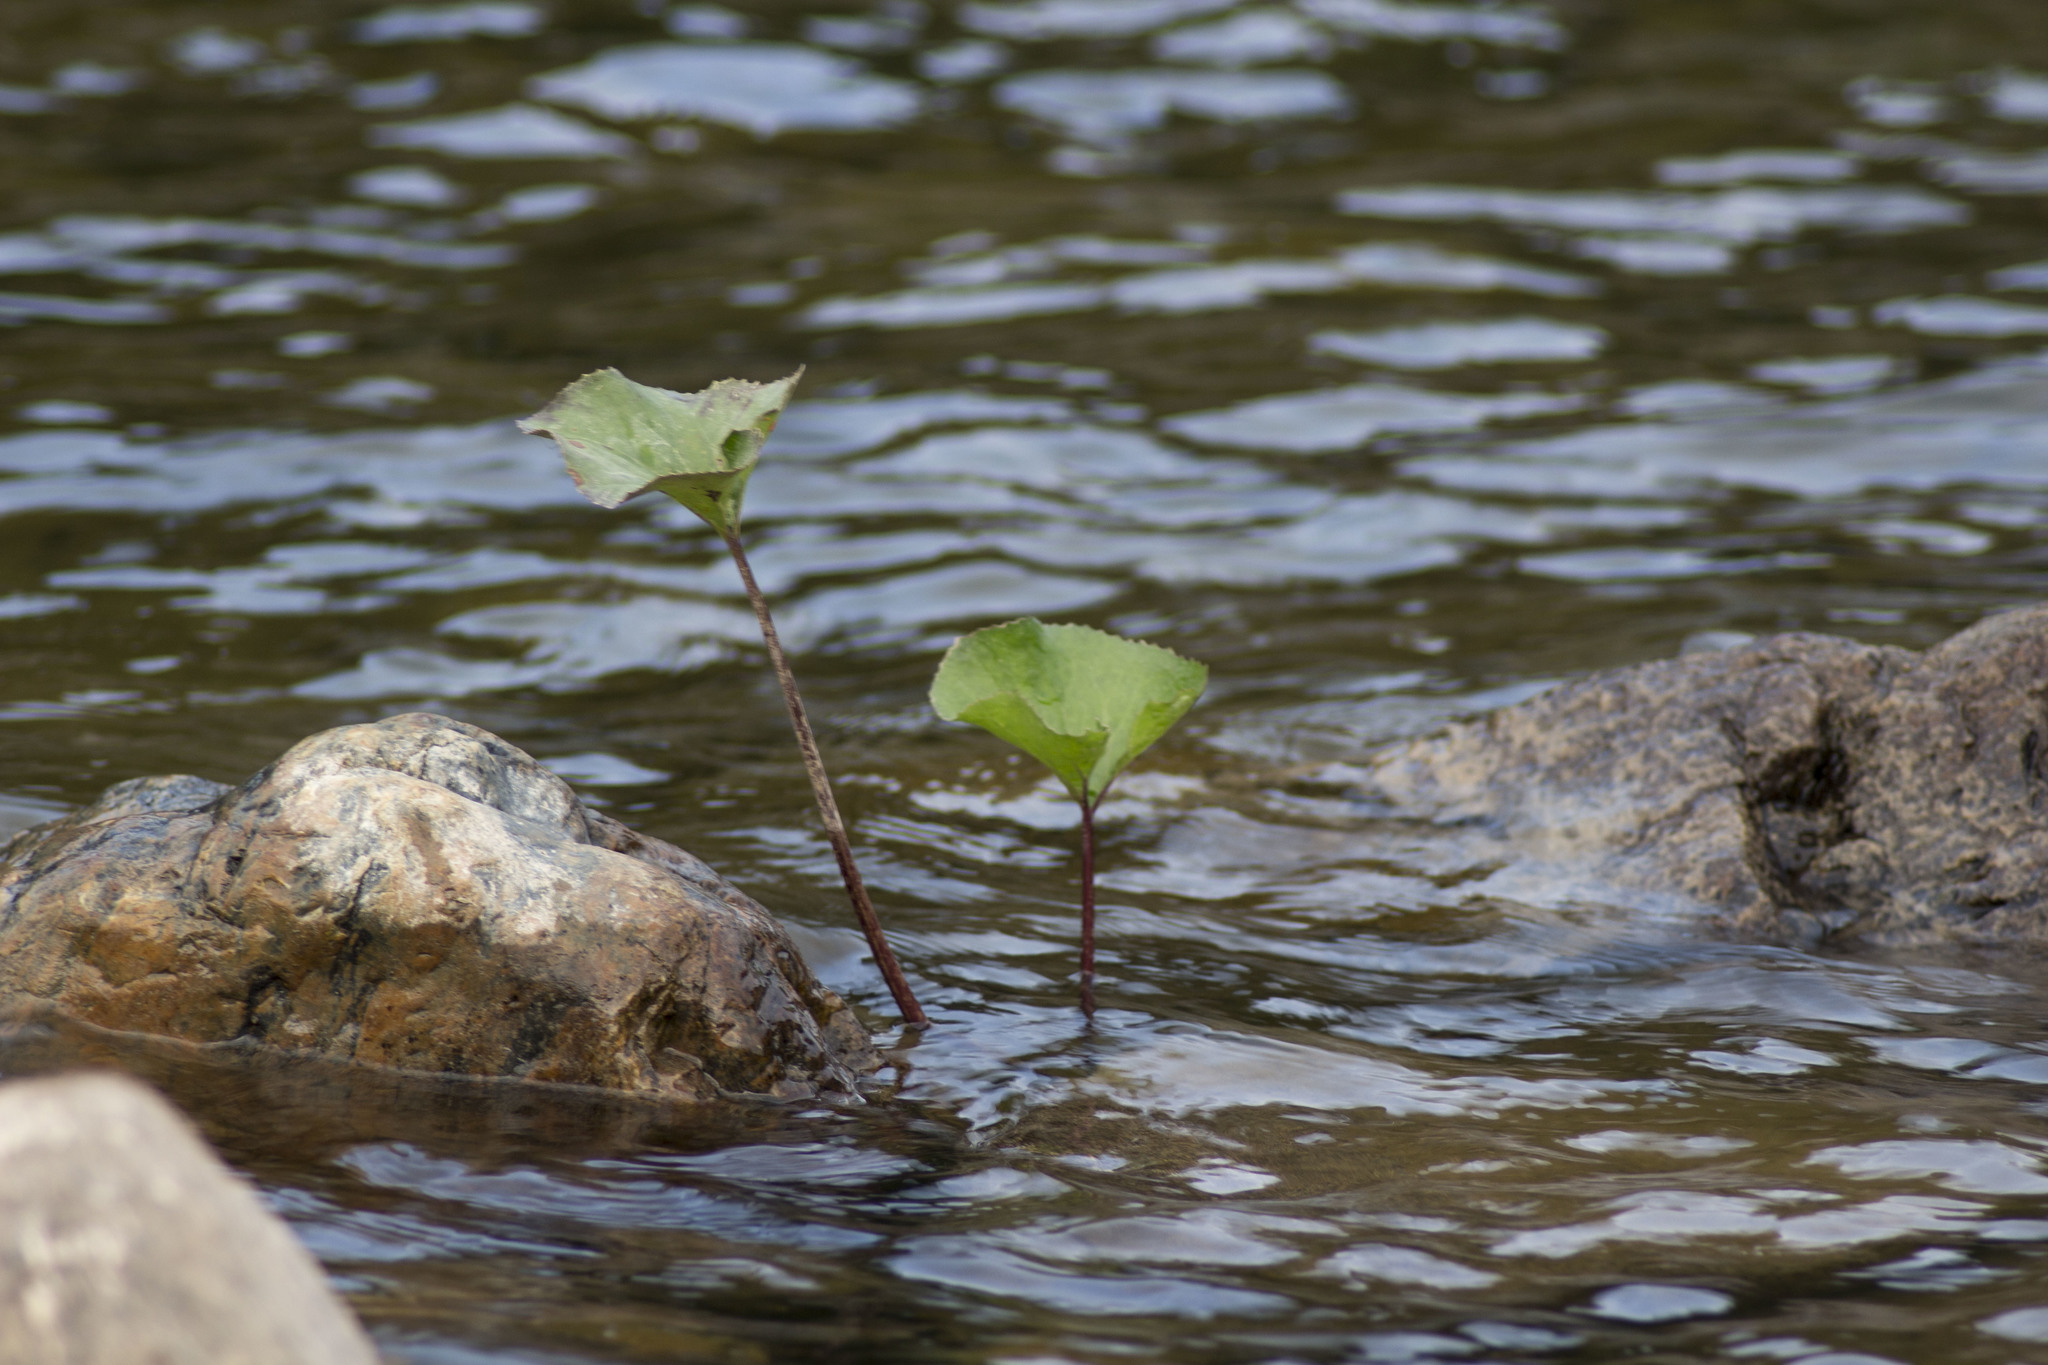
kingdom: Plantae
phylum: Tracheophyta
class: Magnoliopsida
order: Asterales
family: Asteraceae
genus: Petasites
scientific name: Petasites radiatus
